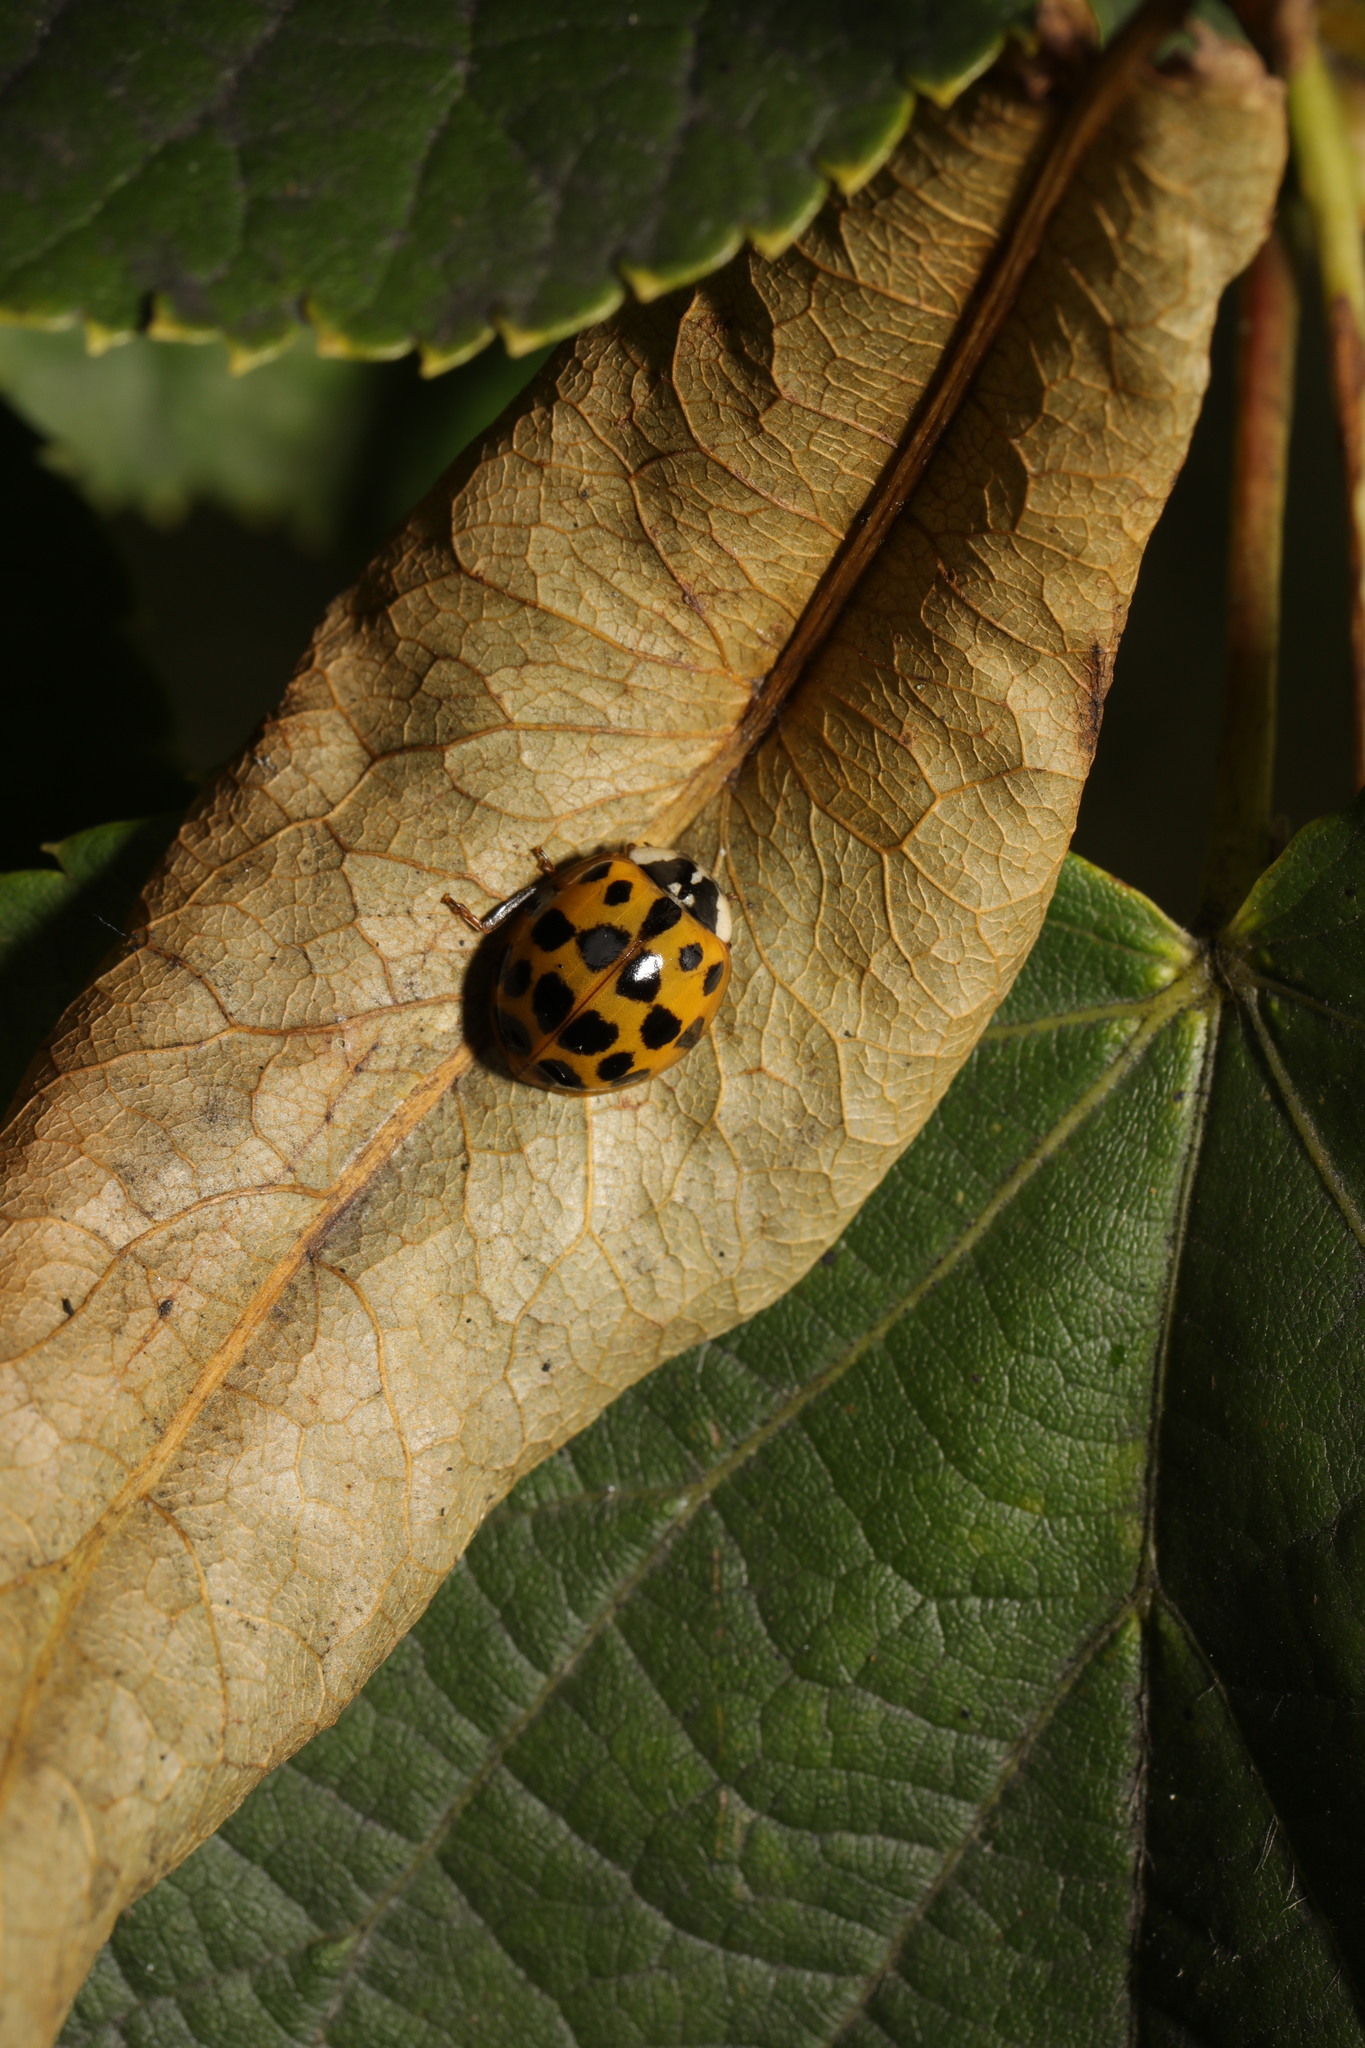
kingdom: Animalia
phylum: Arthropoda
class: Insecta
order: Coleoptera
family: Coccinellidae
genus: Harmonia
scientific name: Harmonia axyridis
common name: Harlequin ladybird
